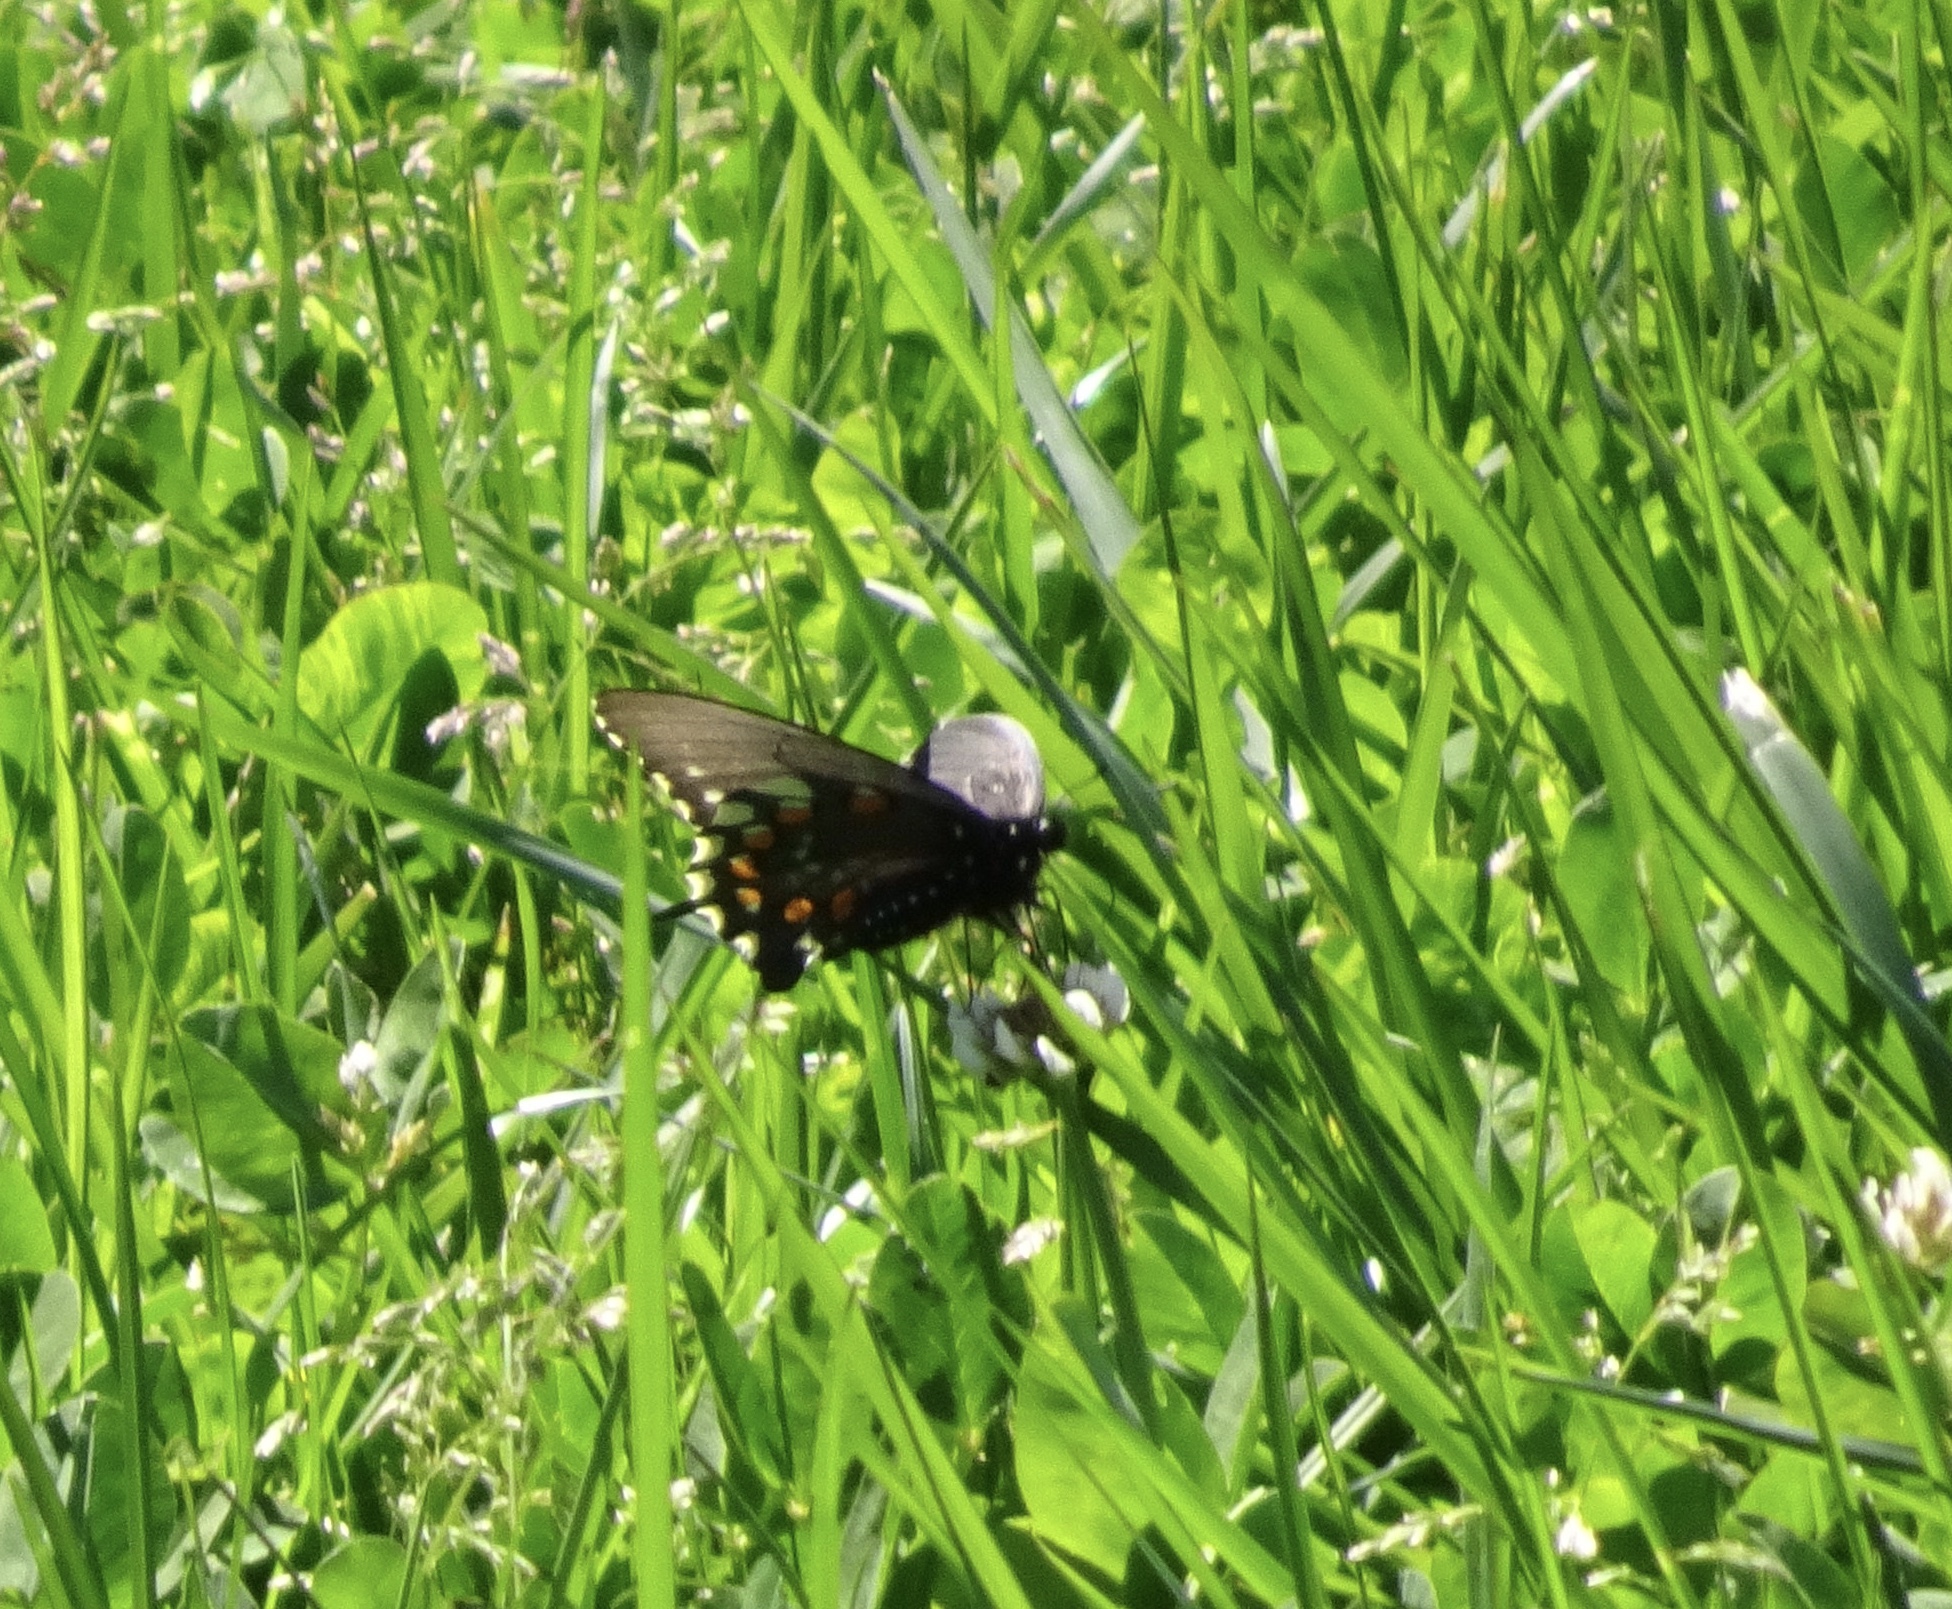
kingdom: Animalia
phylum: Arthropoda
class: Insecta
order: Lepidoptera
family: Papilionidae
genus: Battus
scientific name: Battus philenor
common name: Pipevine swallowtail
